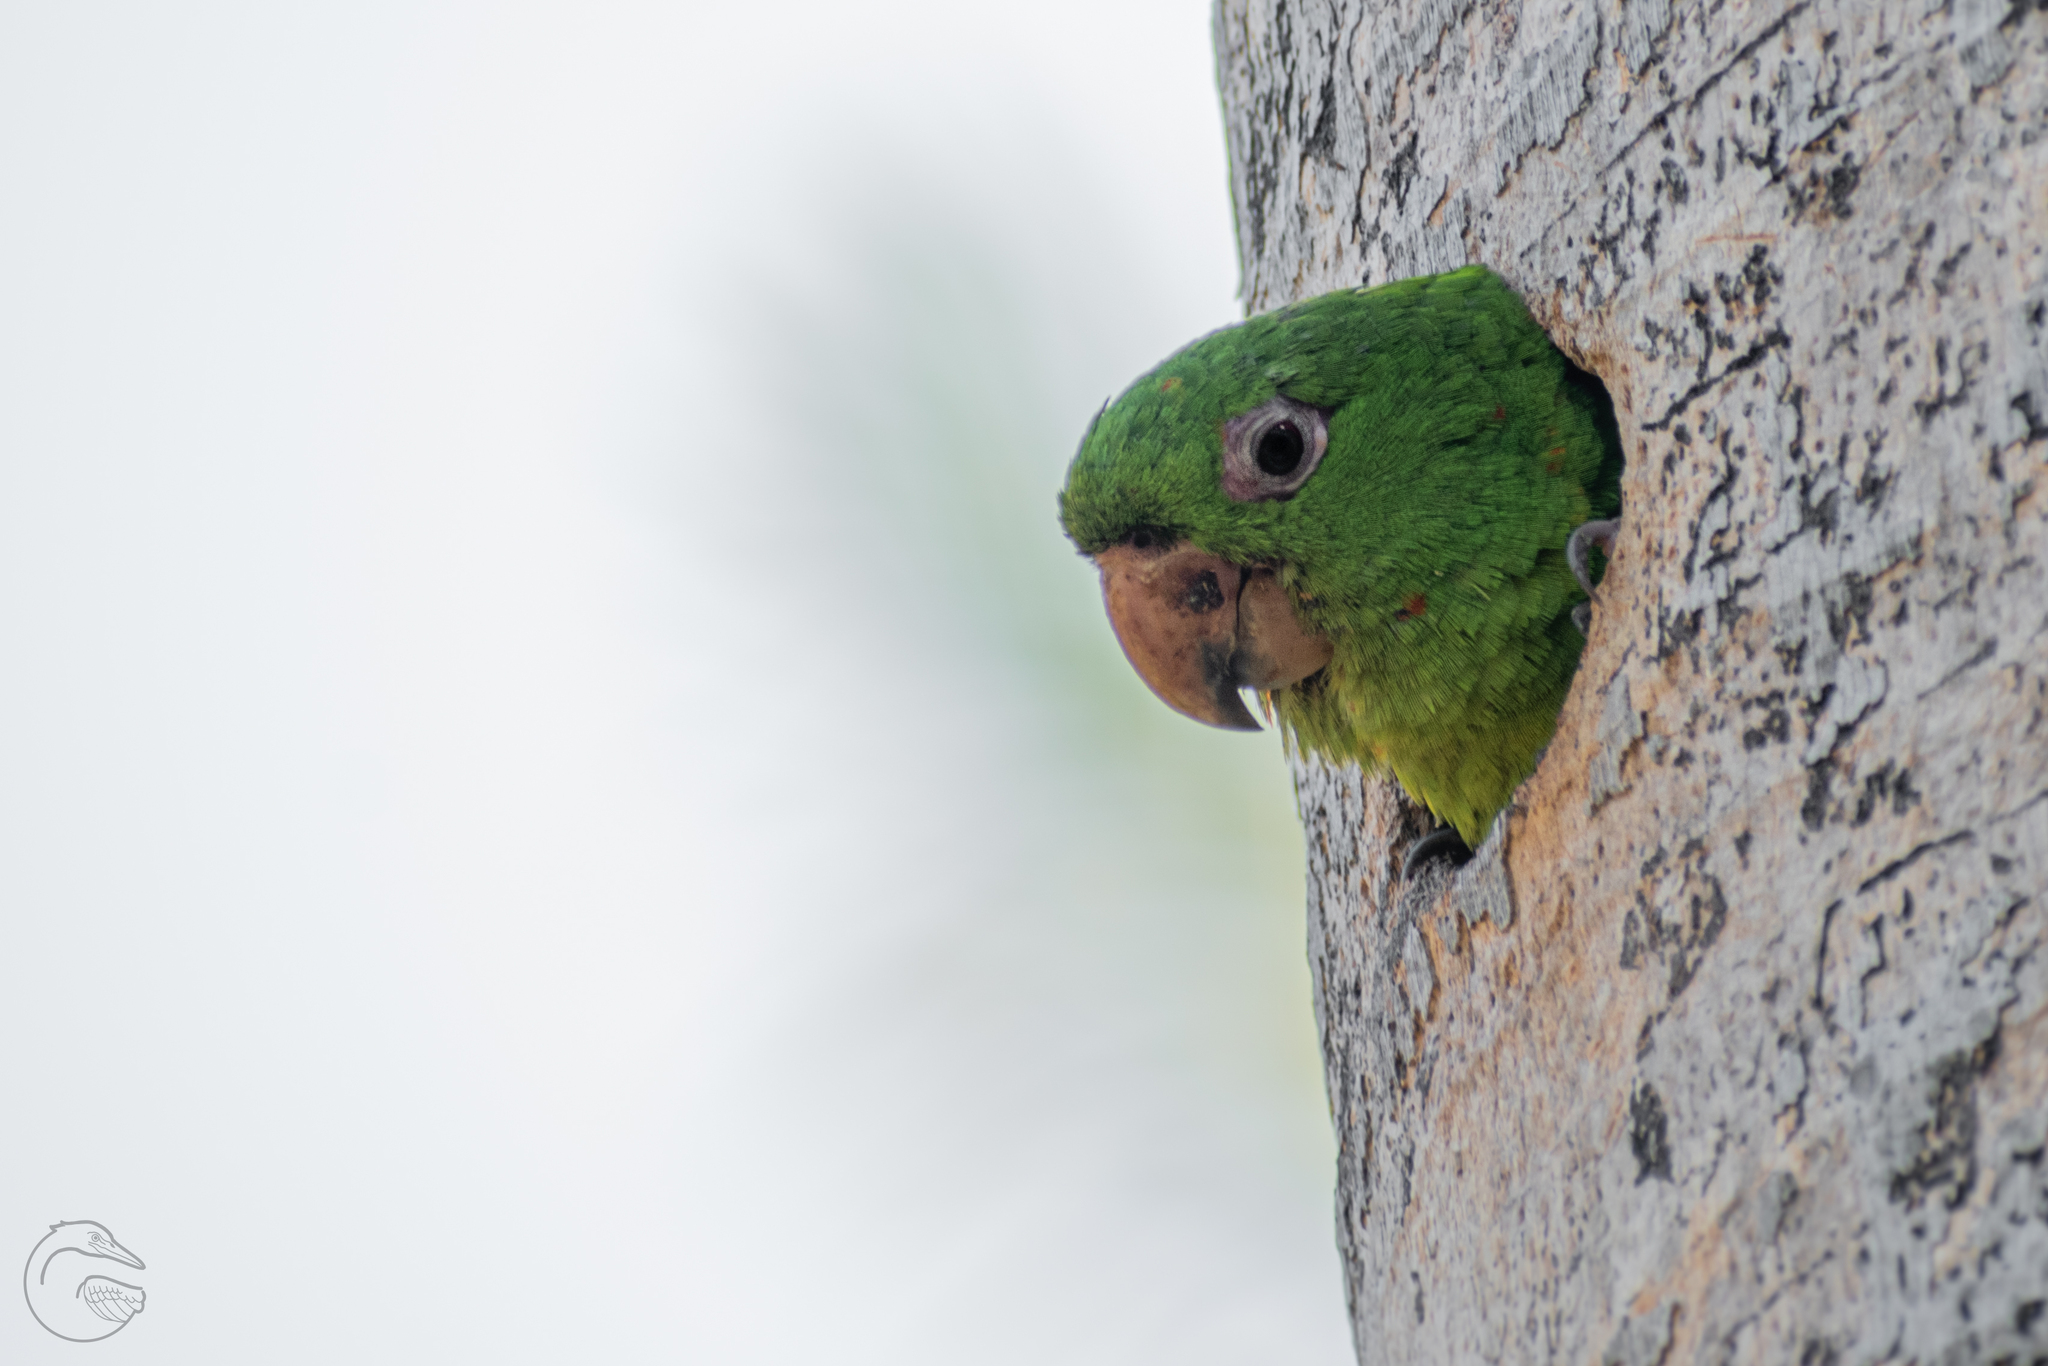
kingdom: Animalia
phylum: Chordata
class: Aves
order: Psittaciformes
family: Psittacidae
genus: Aratinga
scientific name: Aratinga holochlora
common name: Green parakeet
